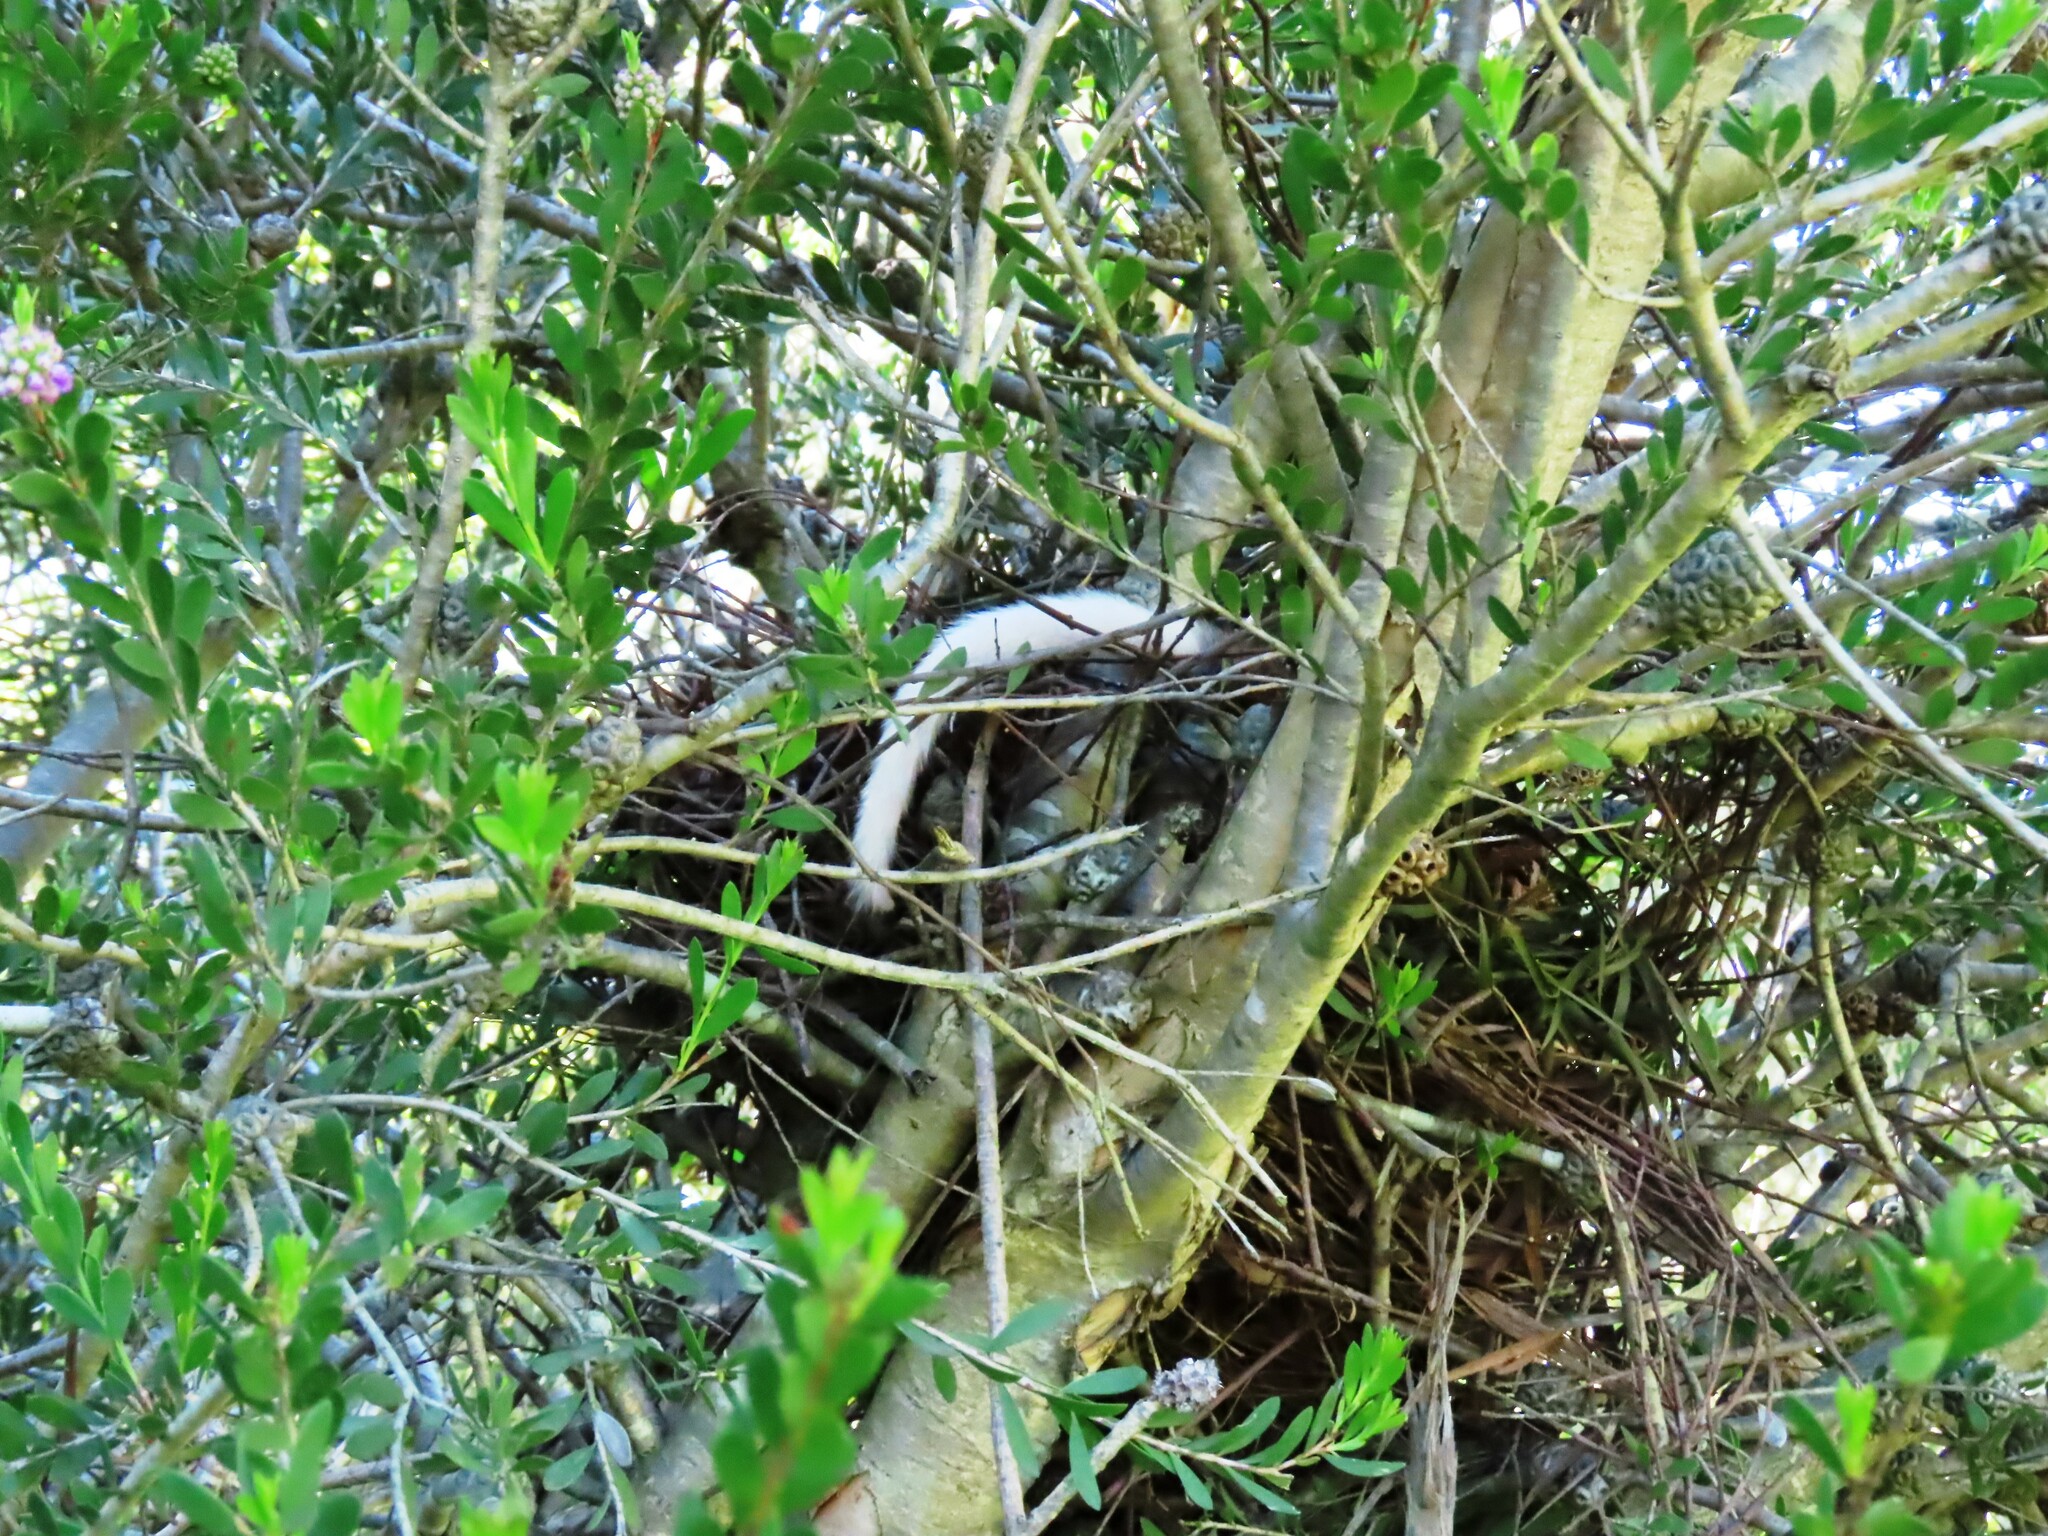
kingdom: Animalia
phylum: Chordata
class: Mammalia
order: Diprotodontia
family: Pseudocheiridae
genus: Pseudocheirus
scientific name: Pseudocheirus peregrinus
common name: Common ringtail possum
